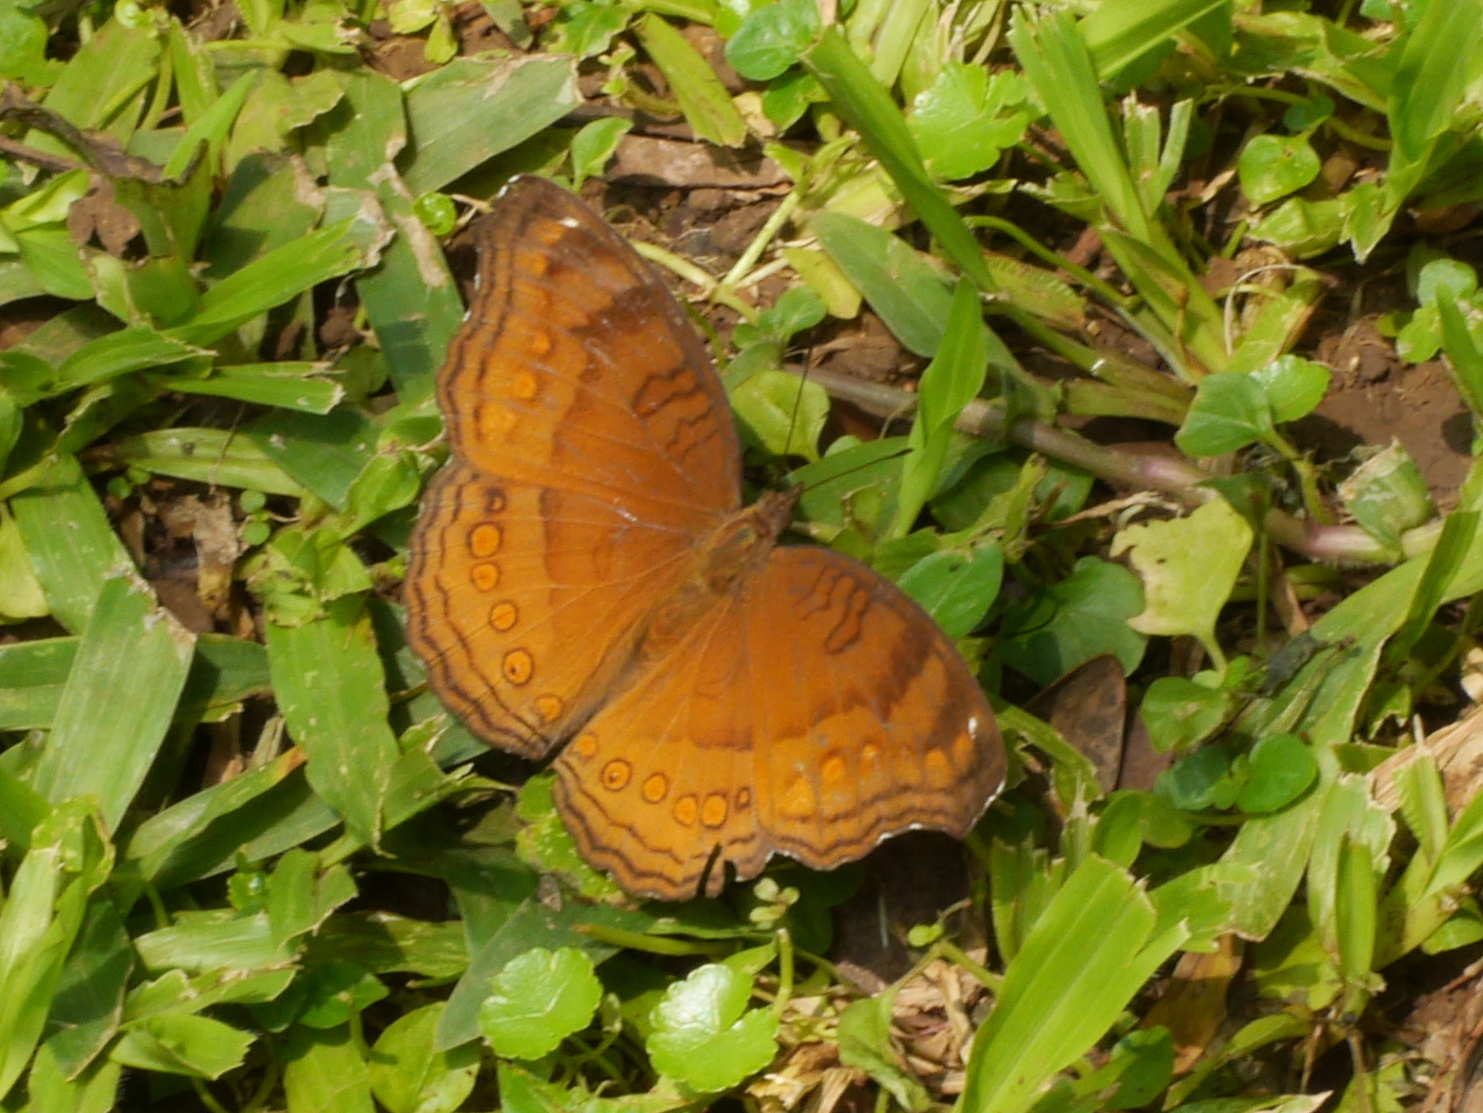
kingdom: Animalia
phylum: Arthropoda
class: Insecta
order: Lepidoptera
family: Nymphalidae
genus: Junonia
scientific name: Junonia hedonia
